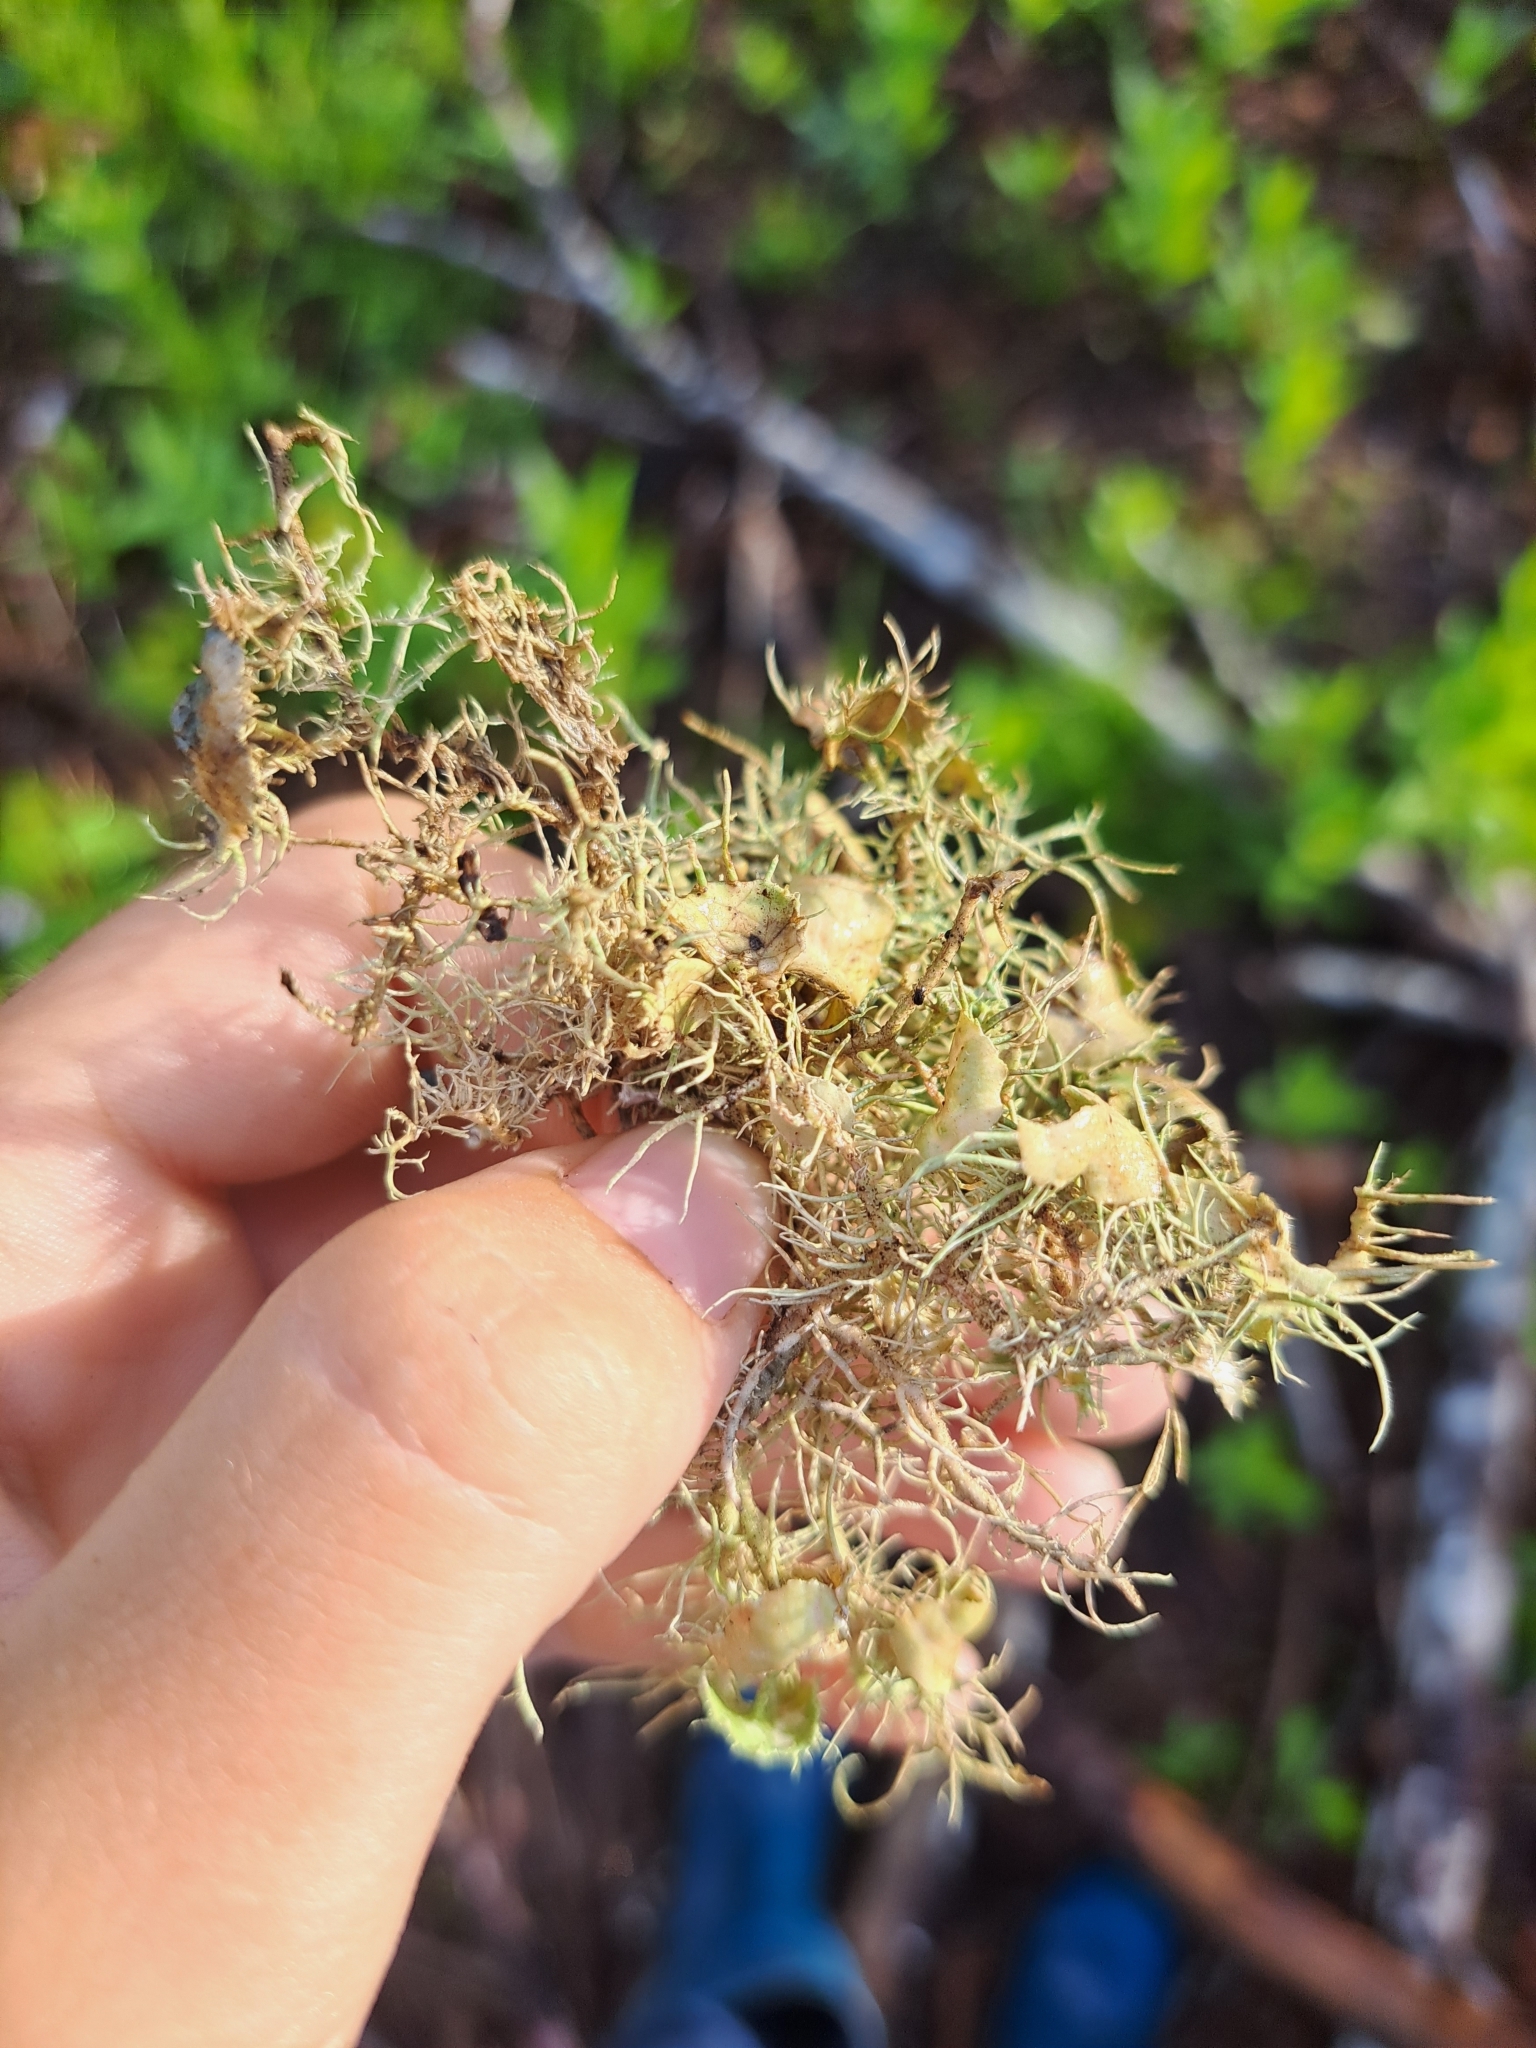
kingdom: Fungi
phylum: Ascomycota
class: Lecanoromycetes
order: Lecanorales
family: Parmeliaceae
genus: Usnea
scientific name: Usnea strigosa
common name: Bushy beard lichen
